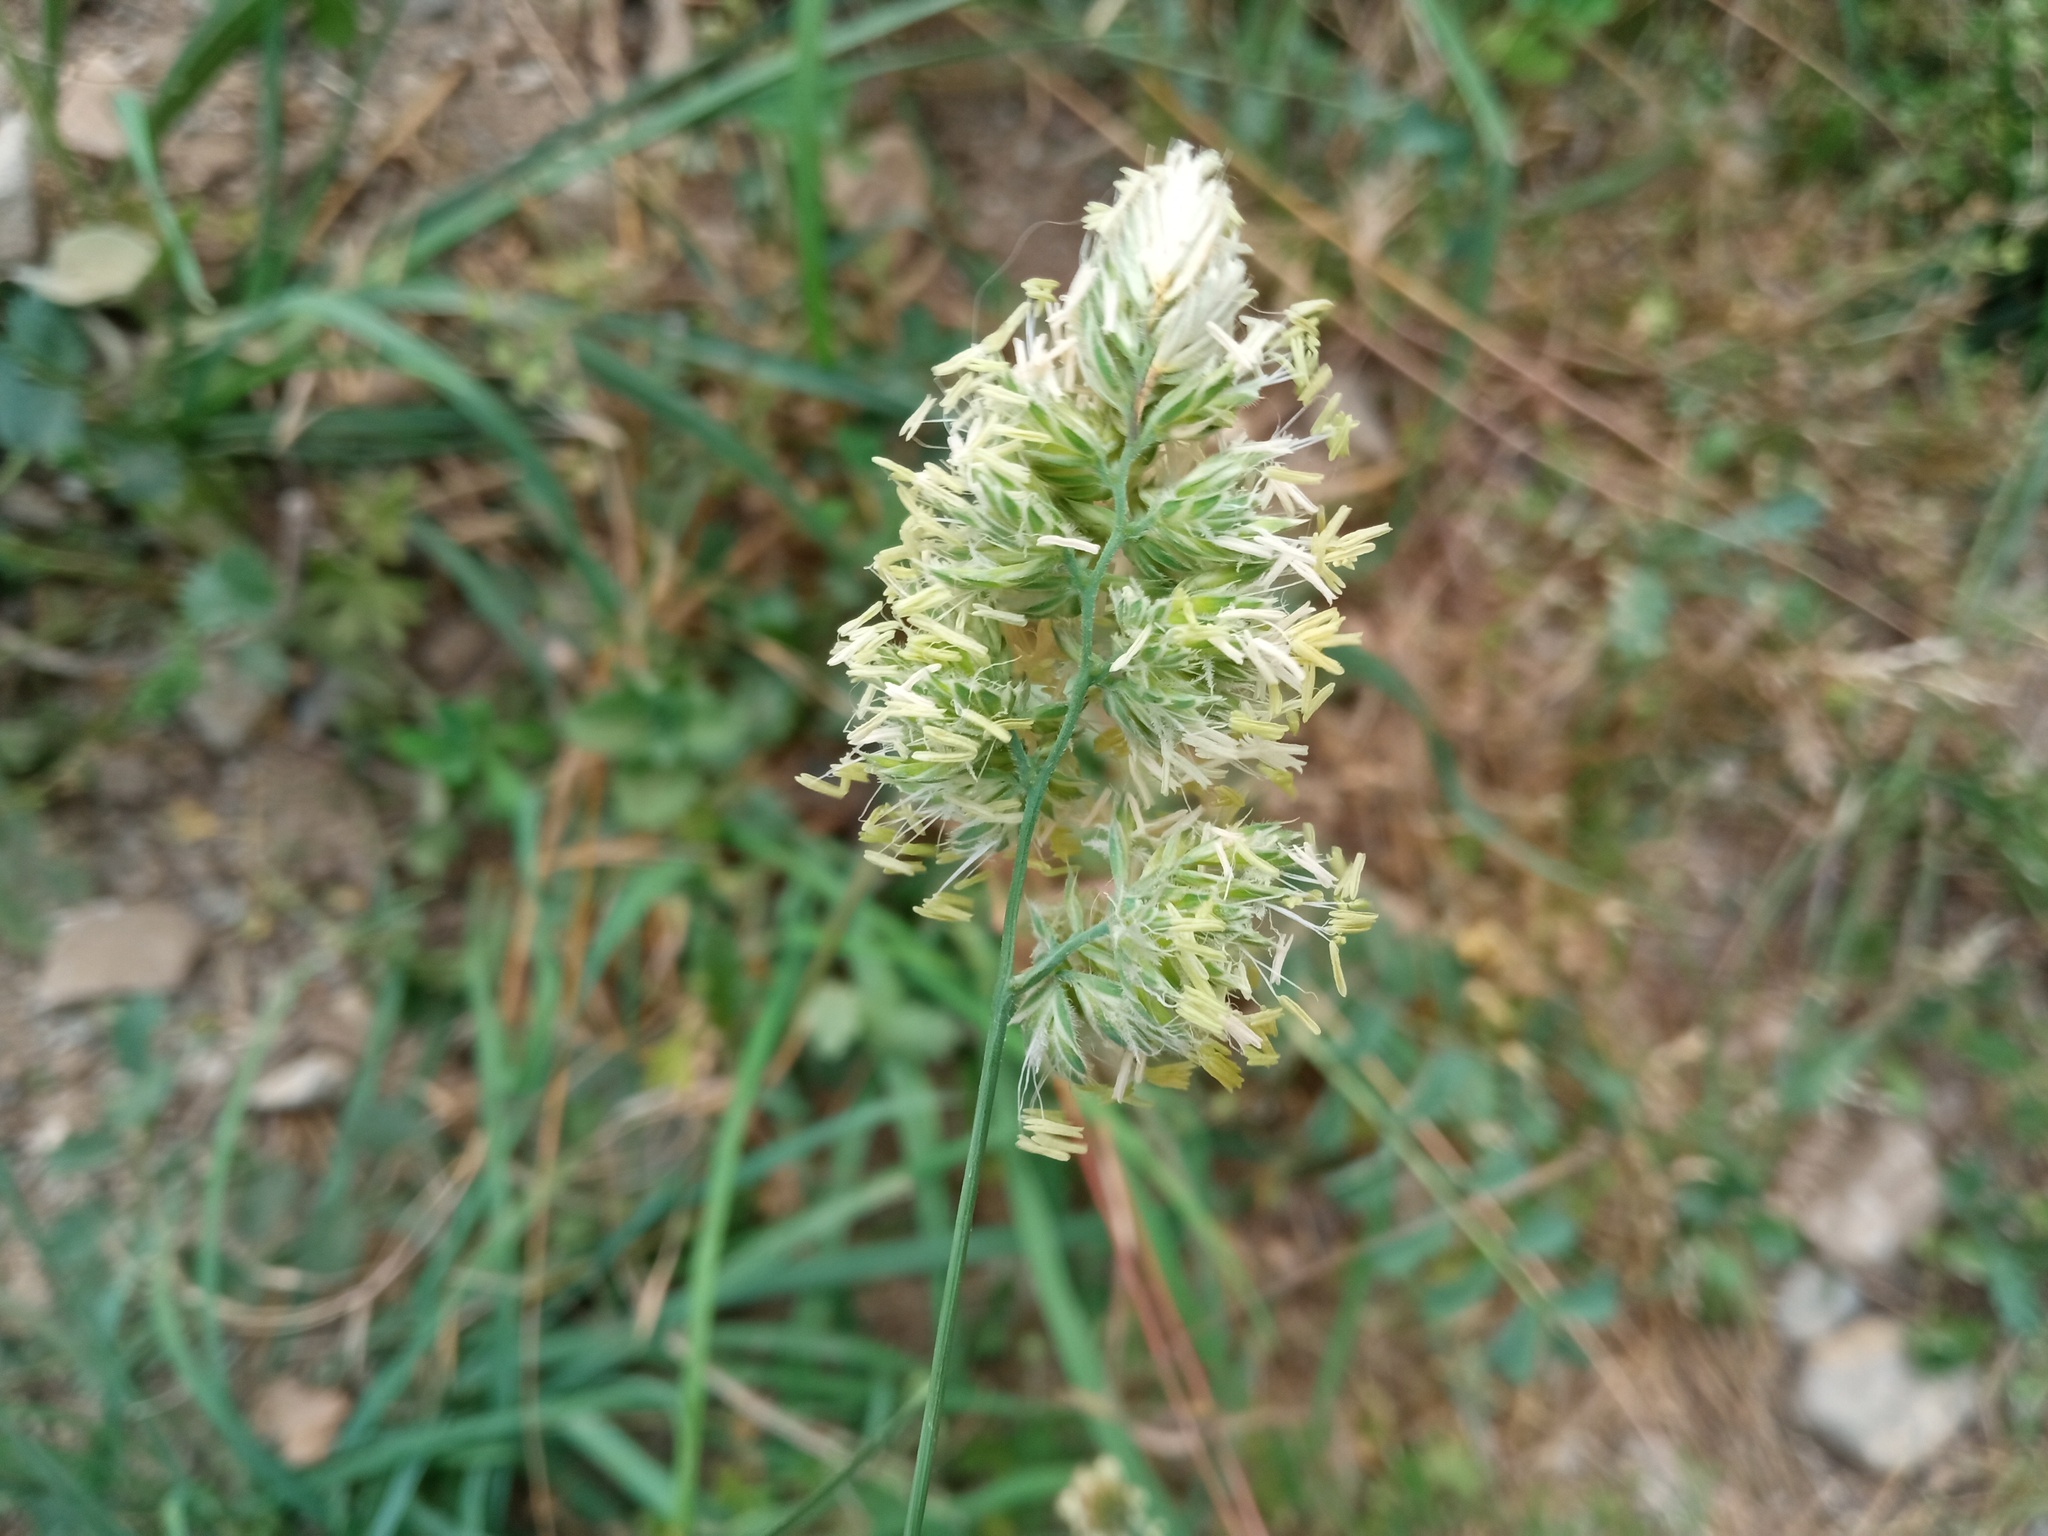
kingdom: Plantae
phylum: Tracheophyta
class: Liliopsida
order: Poales
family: Poaceae
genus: Dactylis
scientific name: Dactylis glomerata
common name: Orchardgrass
